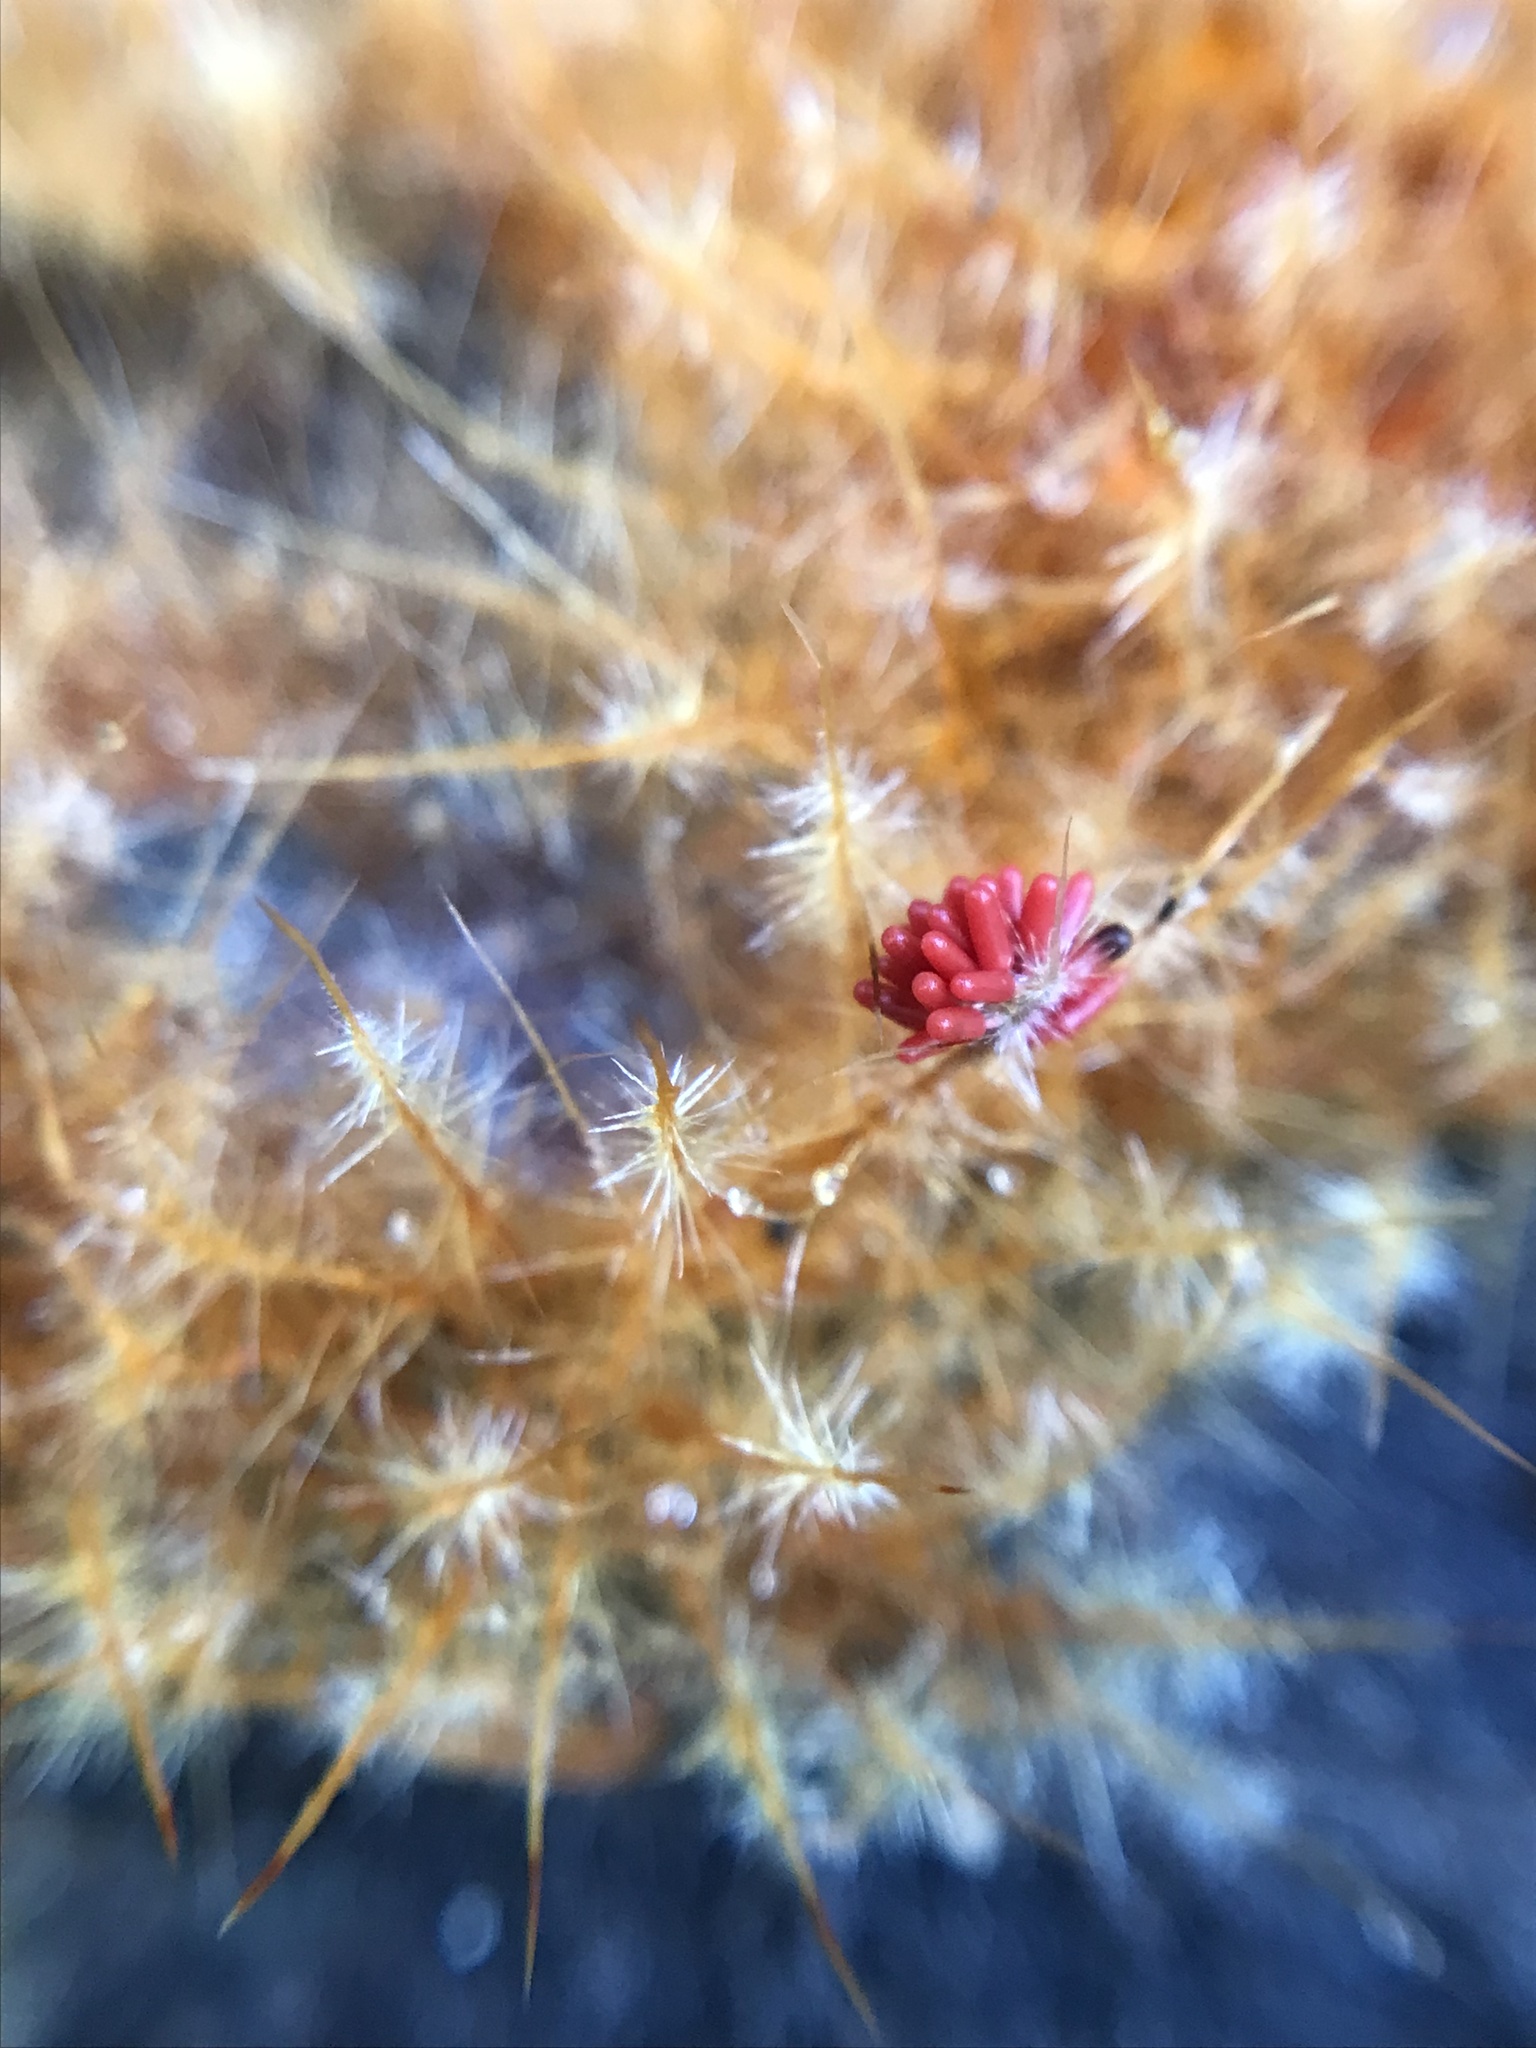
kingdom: Protozoa
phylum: Mycetozoa
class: Myxomycetes
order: Trichiales
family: Arcyriaceae
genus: Arcyria
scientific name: Arcyria denudata
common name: Carnival candy slime mold
